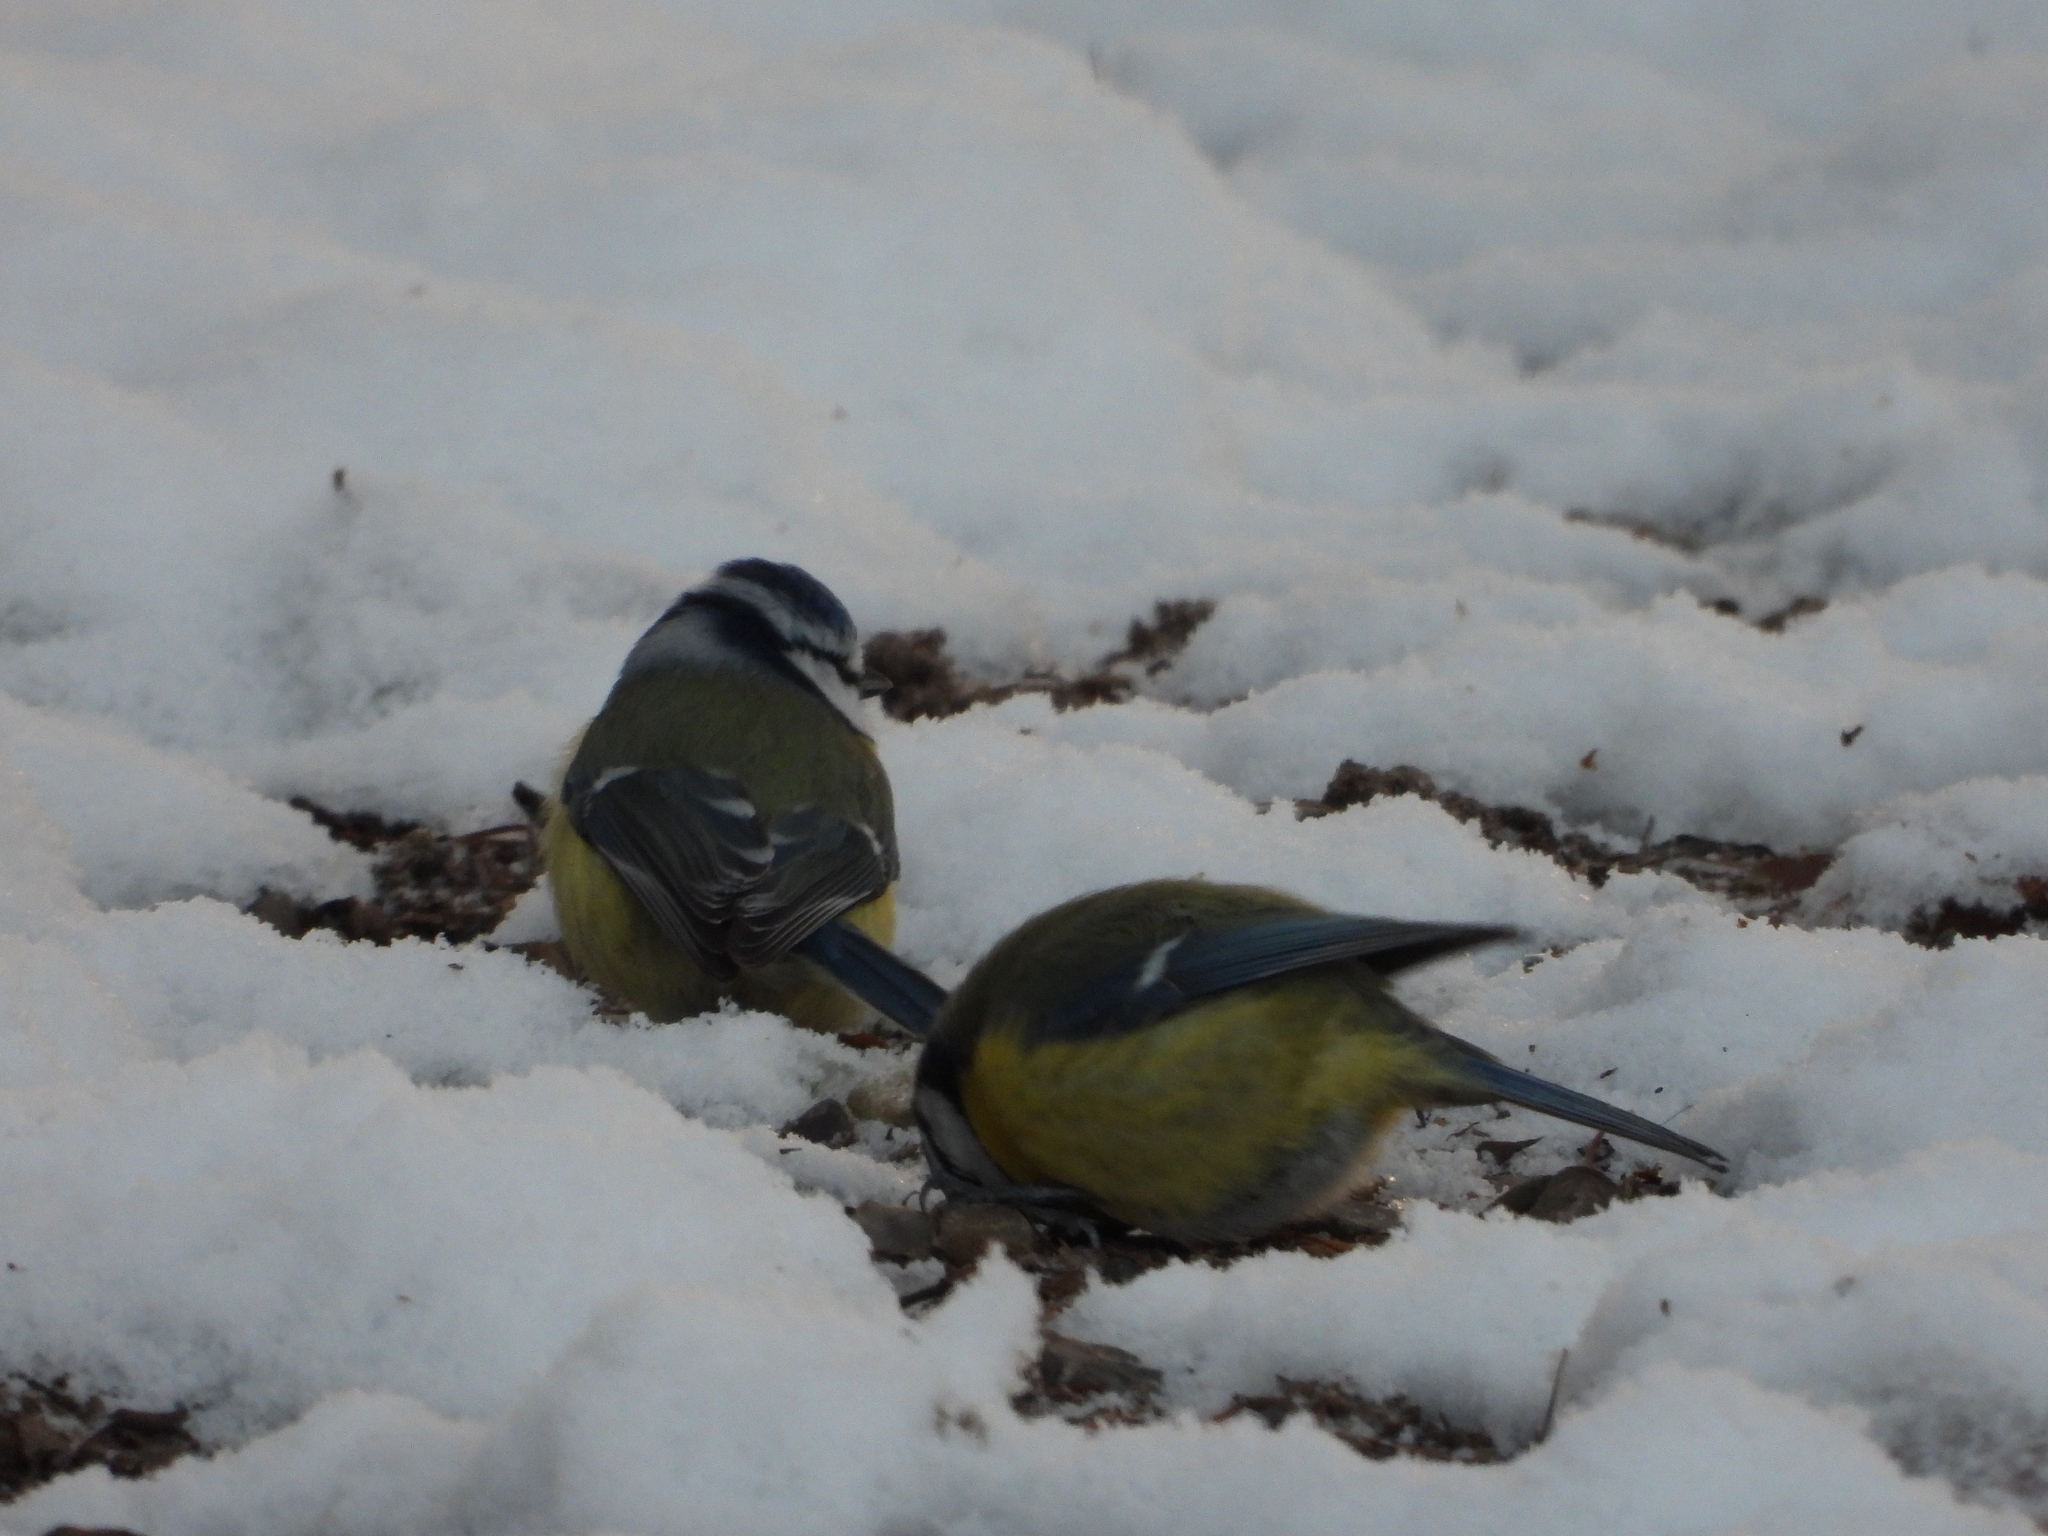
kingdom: Animalia
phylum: Chordata
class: Aves
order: Passeriformes
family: Paridae
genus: Cyanistes
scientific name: Cyanistes caeruleus
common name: Eurasian blue tit
